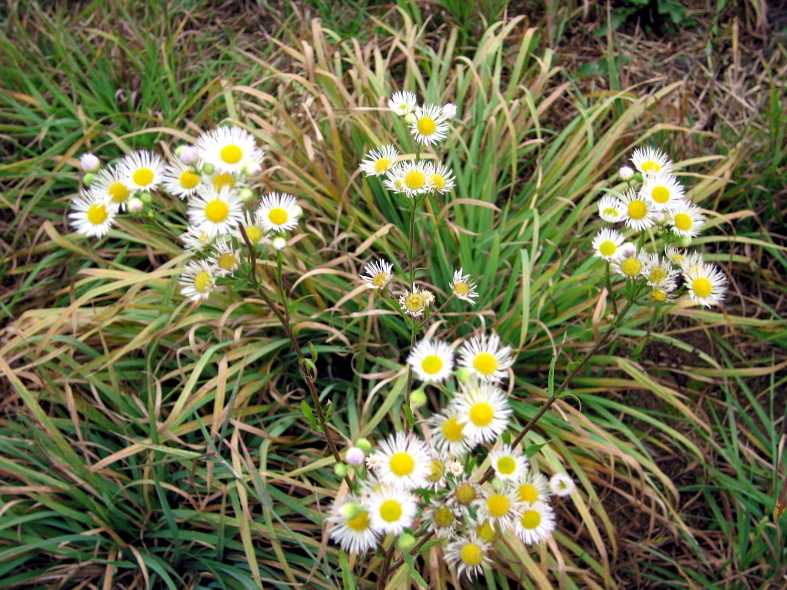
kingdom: Plantae
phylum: Tracheophyta
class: Magnoliopsida
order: Asterales
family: Asteraceae
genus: Erigeron
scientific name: Erigeron strigosus
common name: Common eastern fleabane
